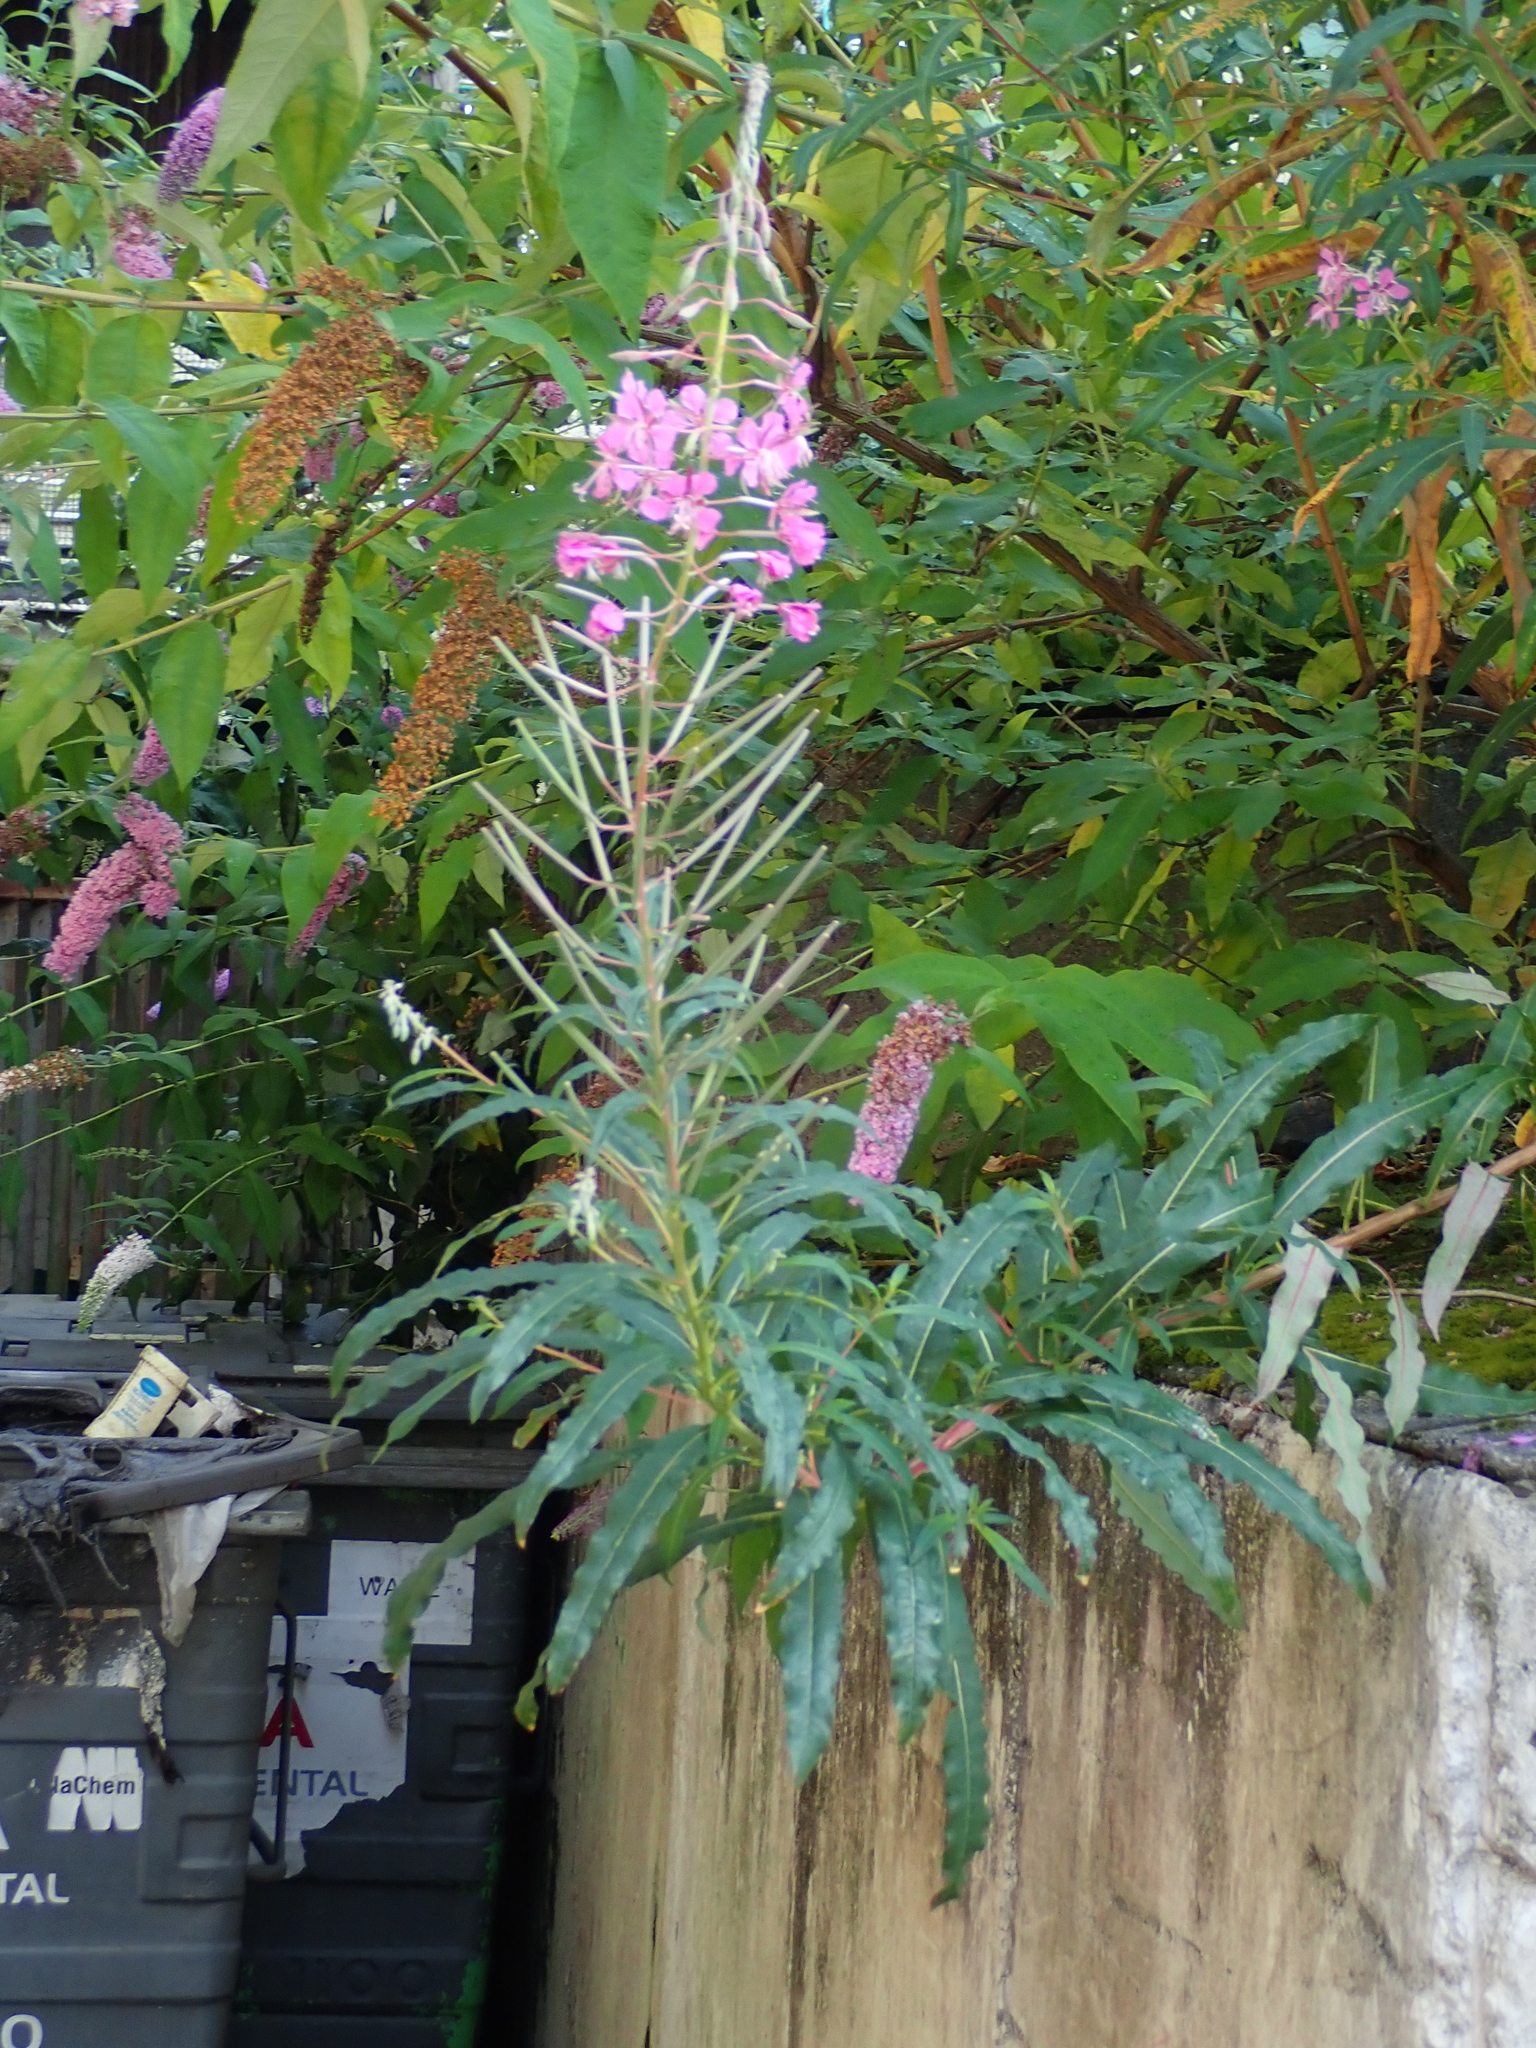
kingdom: Plantae
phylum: Tracheophyta
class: Magnoliopsida
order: Myrtales
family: Onagraceae
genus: Chamaenerion
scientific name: Chamaenerion angustifolium
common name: Fireweed
